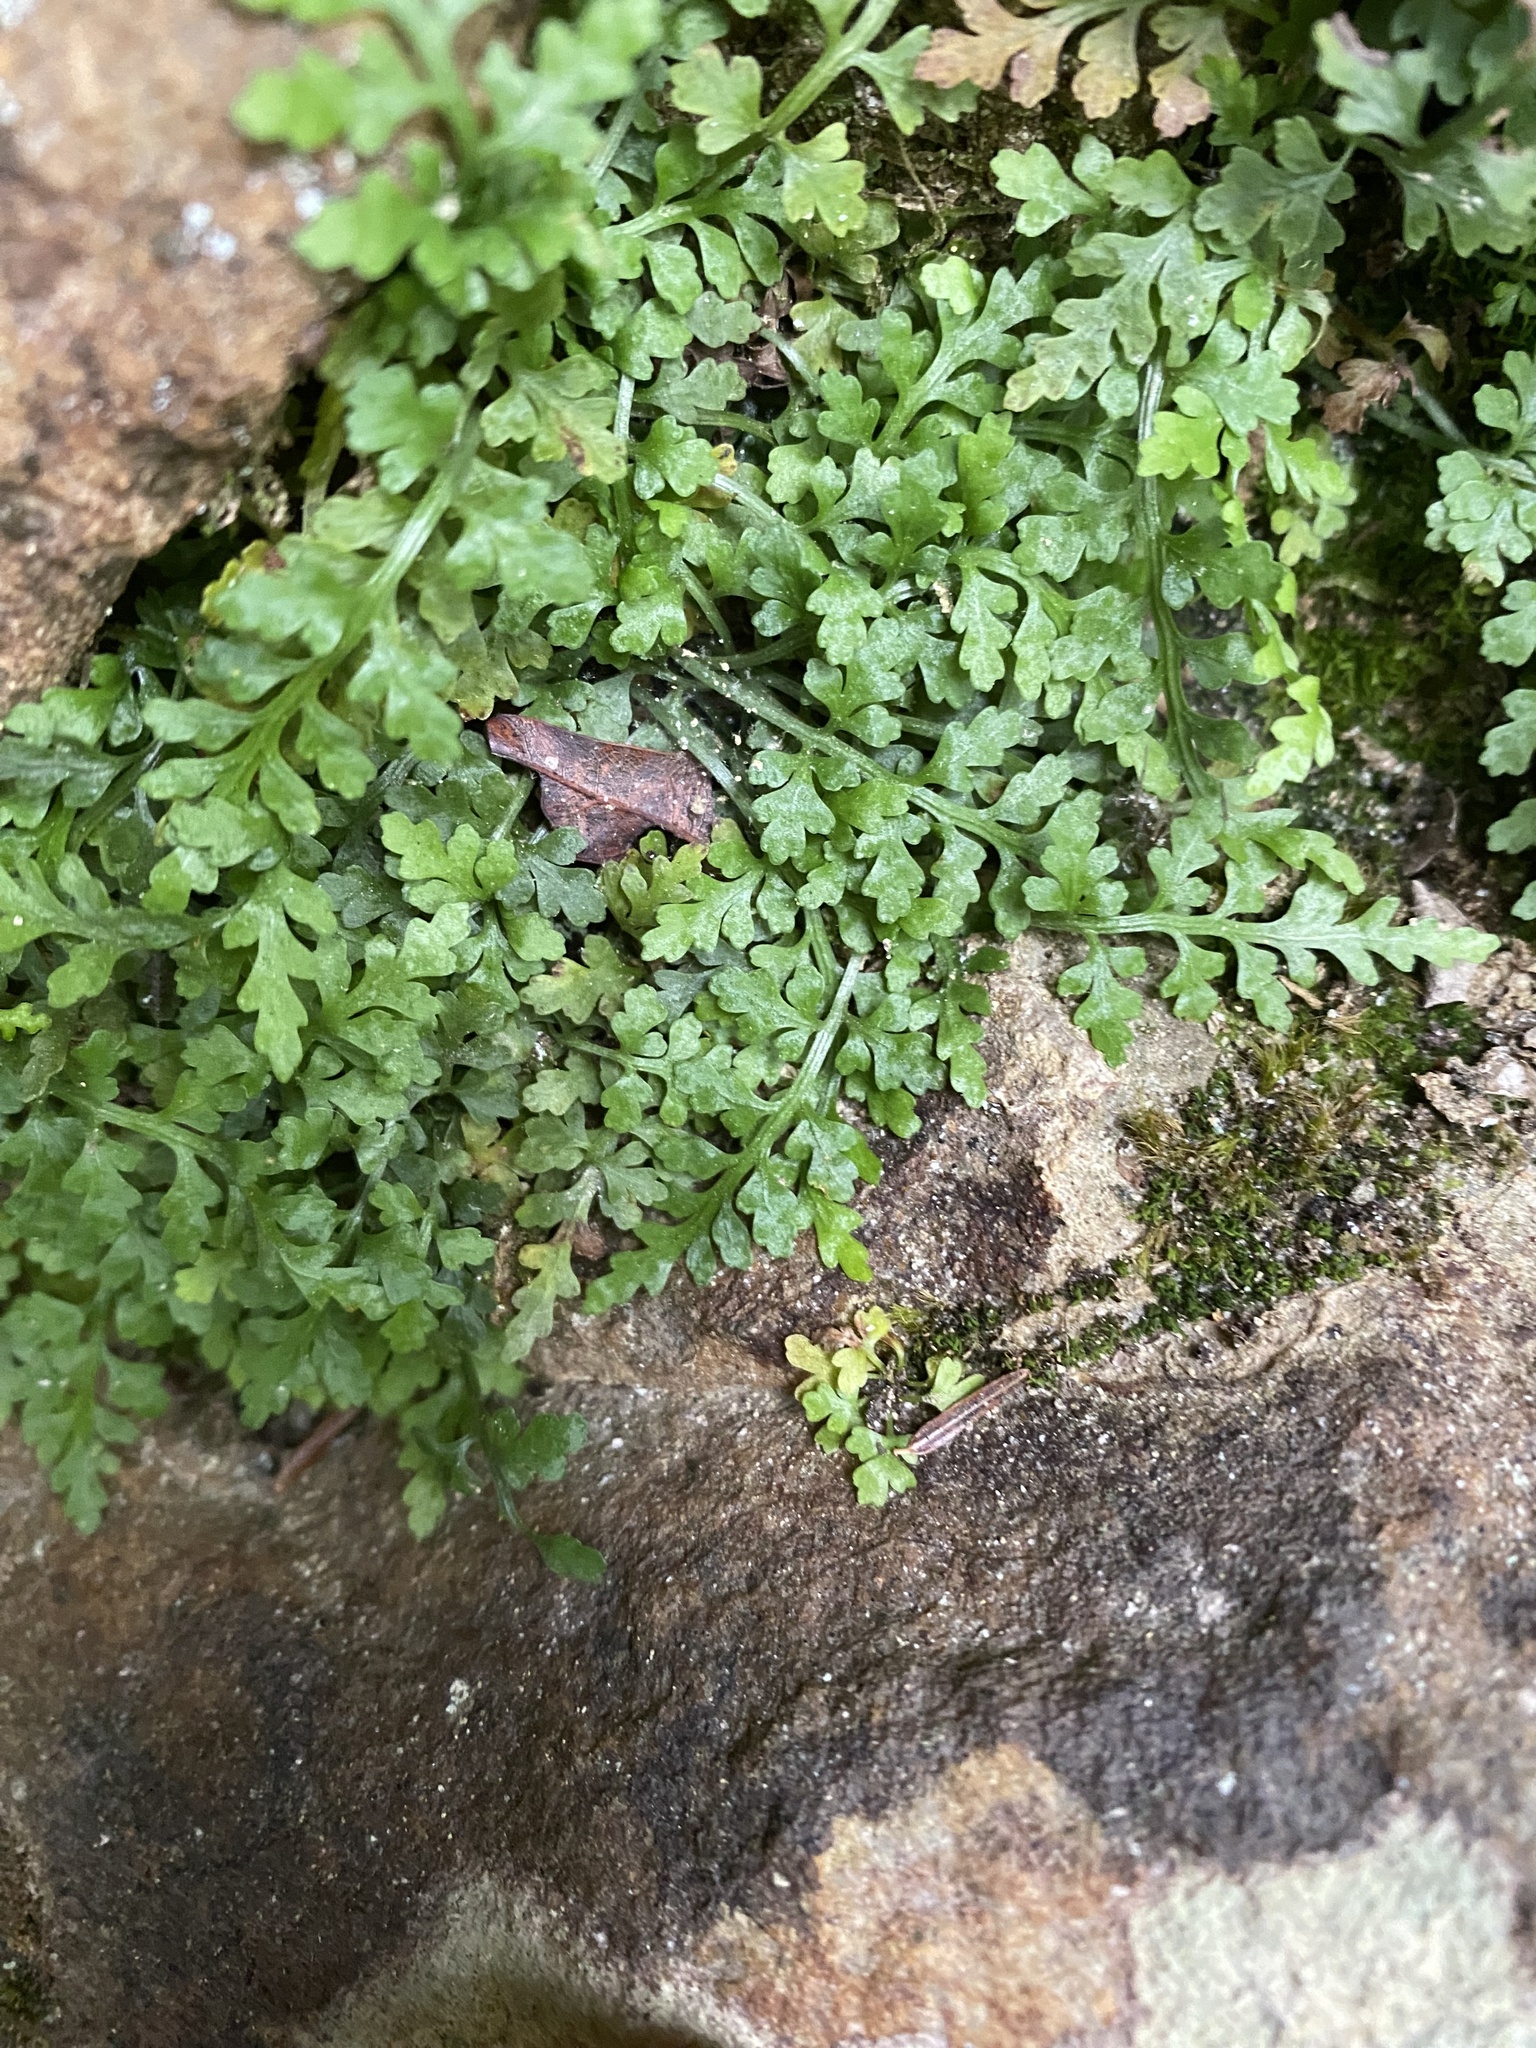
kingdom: Plantae
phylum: Tracheophyta
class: Polypodiopsida
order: Polypodiales
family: Aspleniaceae
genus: Asplenium
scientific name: Asplenium montanum
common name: Mountain spleenwort
